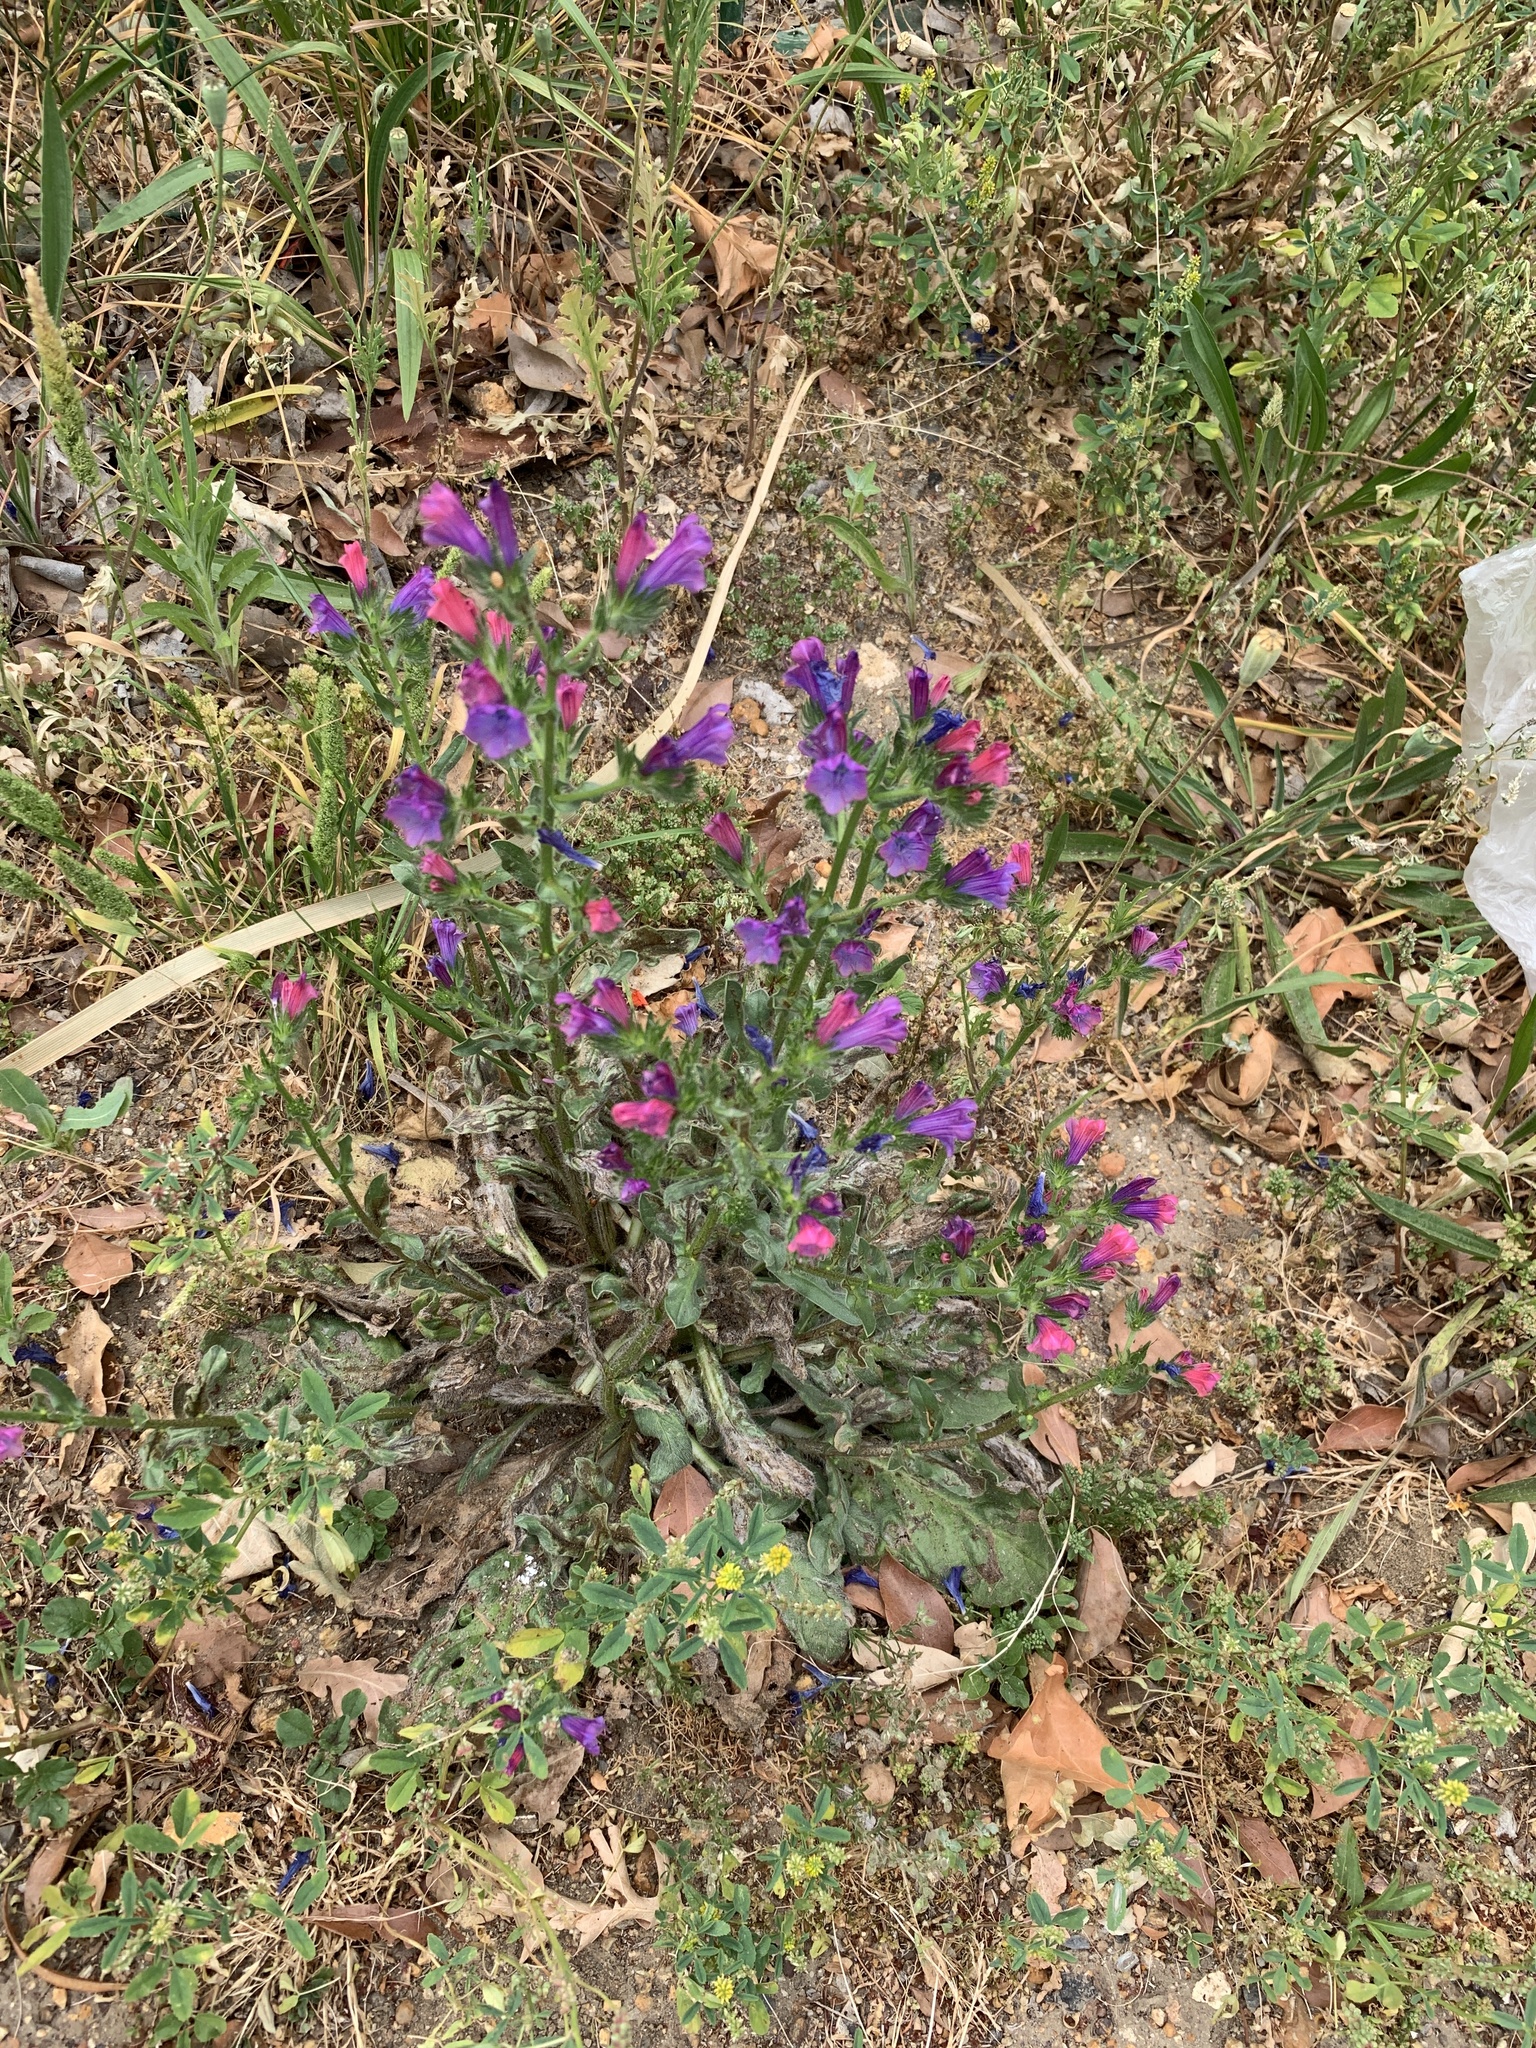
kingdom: Plantae
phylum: Tracheophyta
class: Magnoliopsida
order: Boraginales
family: Boraginaceae
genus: Echium
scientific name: Echium plantagineum
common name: Purple viper's-bugloss
